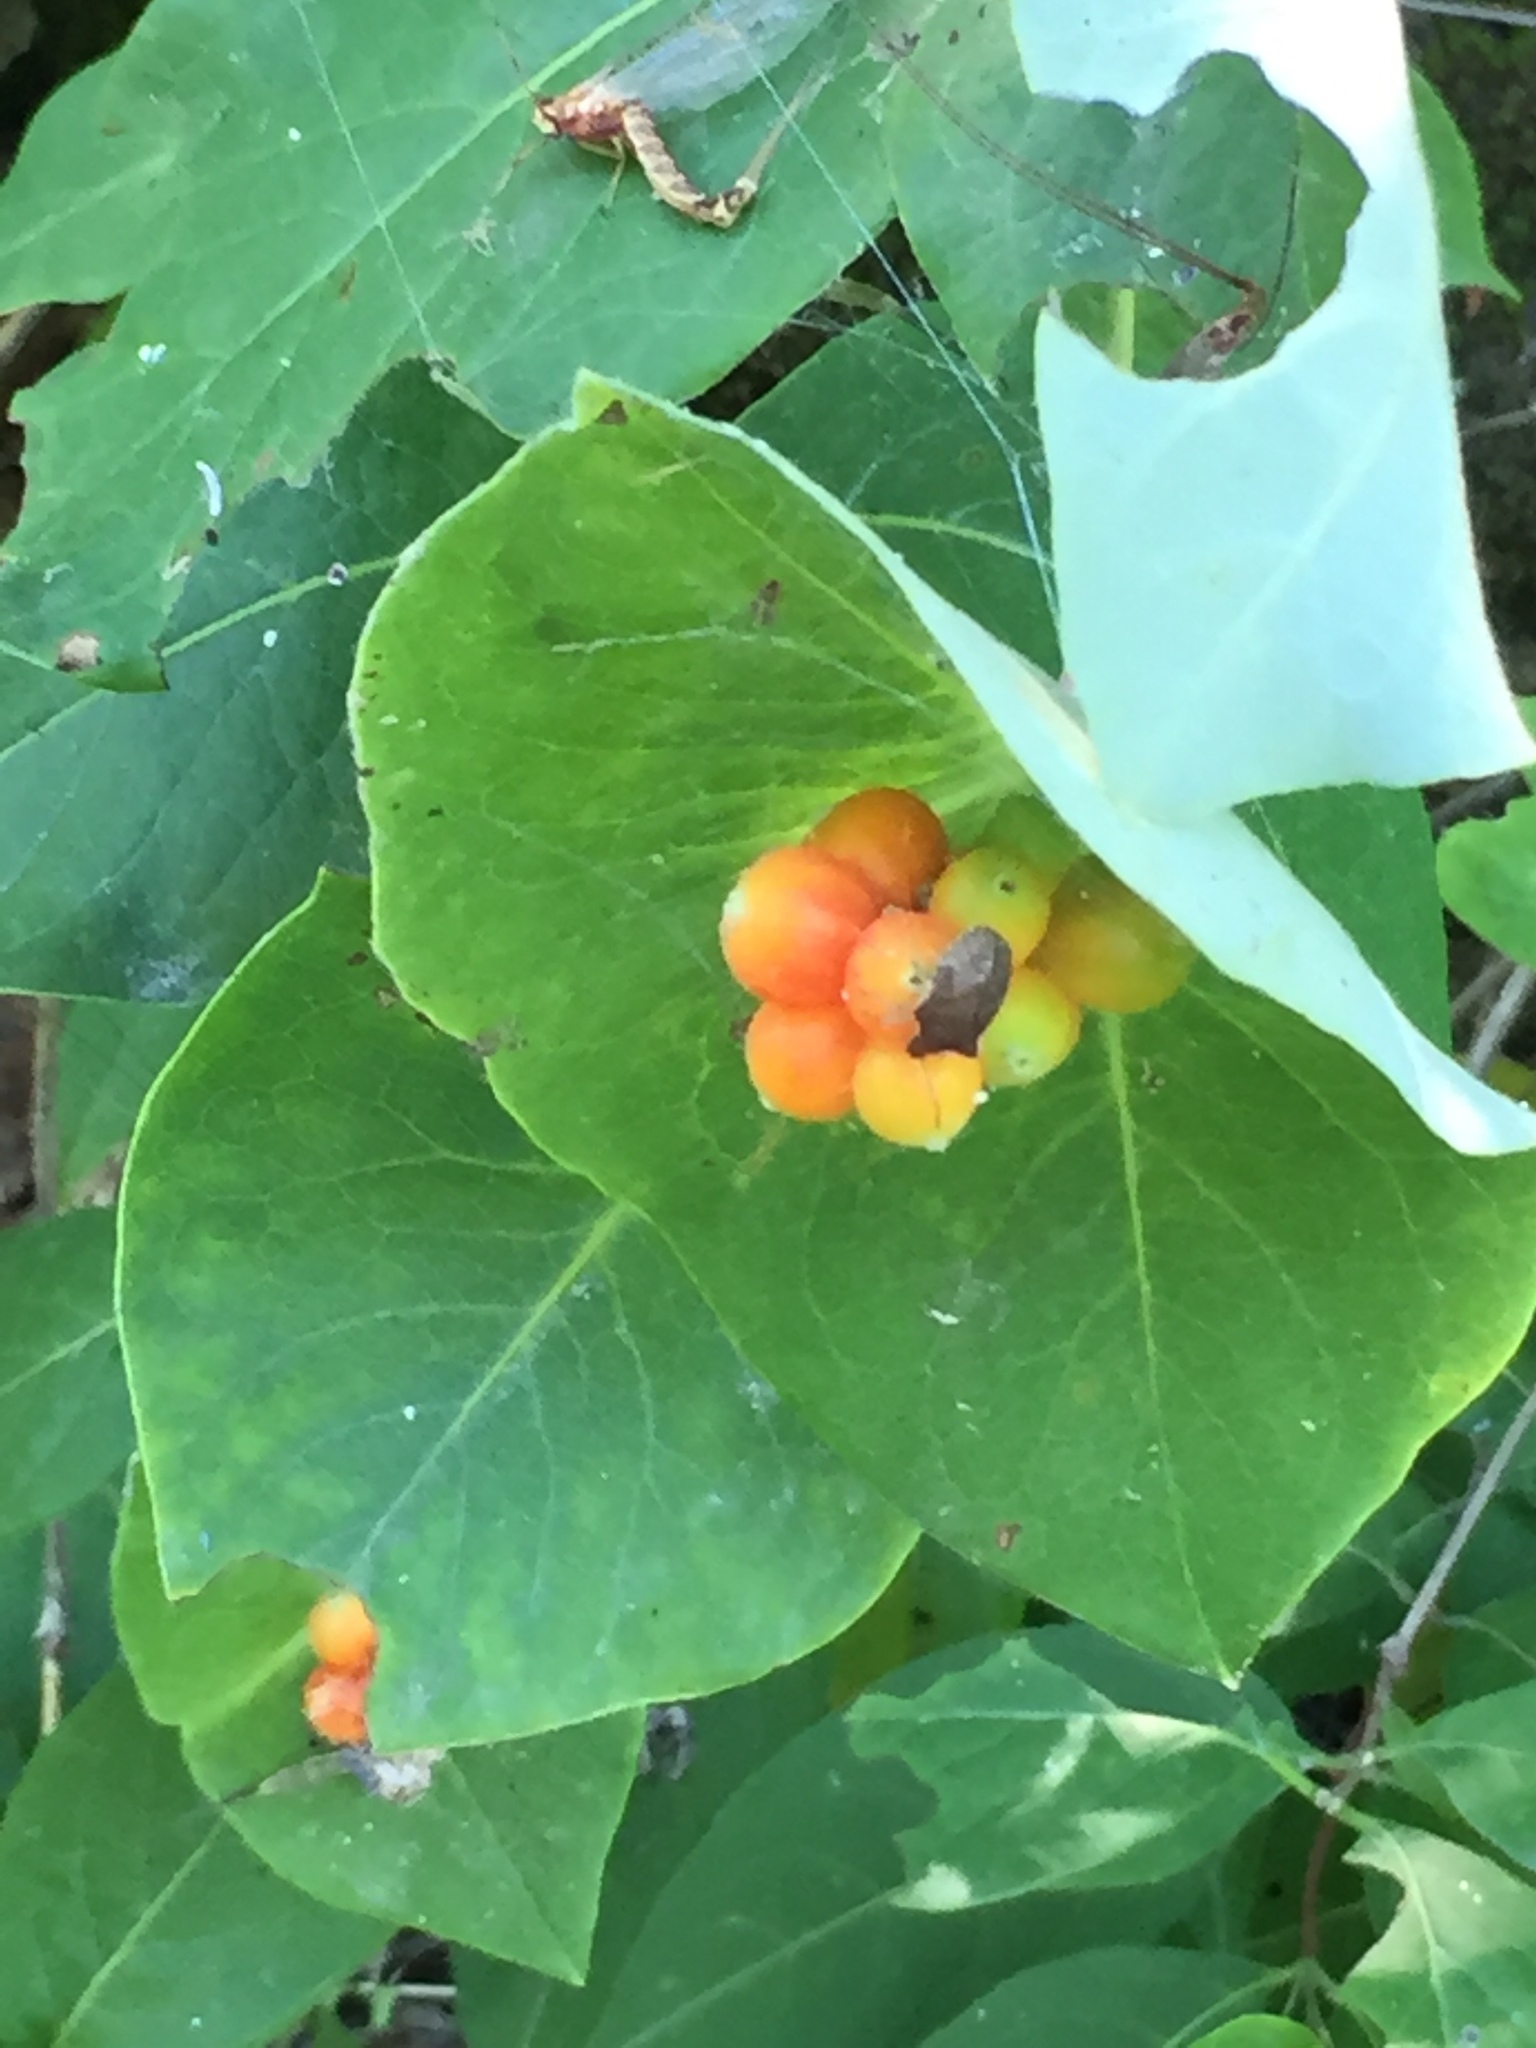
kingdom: Plantae
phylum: Tracheophyta
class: Magnoliopsida
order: Dipsacales
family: Caprifoliaceae
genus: Lonicera
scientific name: Lonicera dioica
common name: Limber honeysuckle
